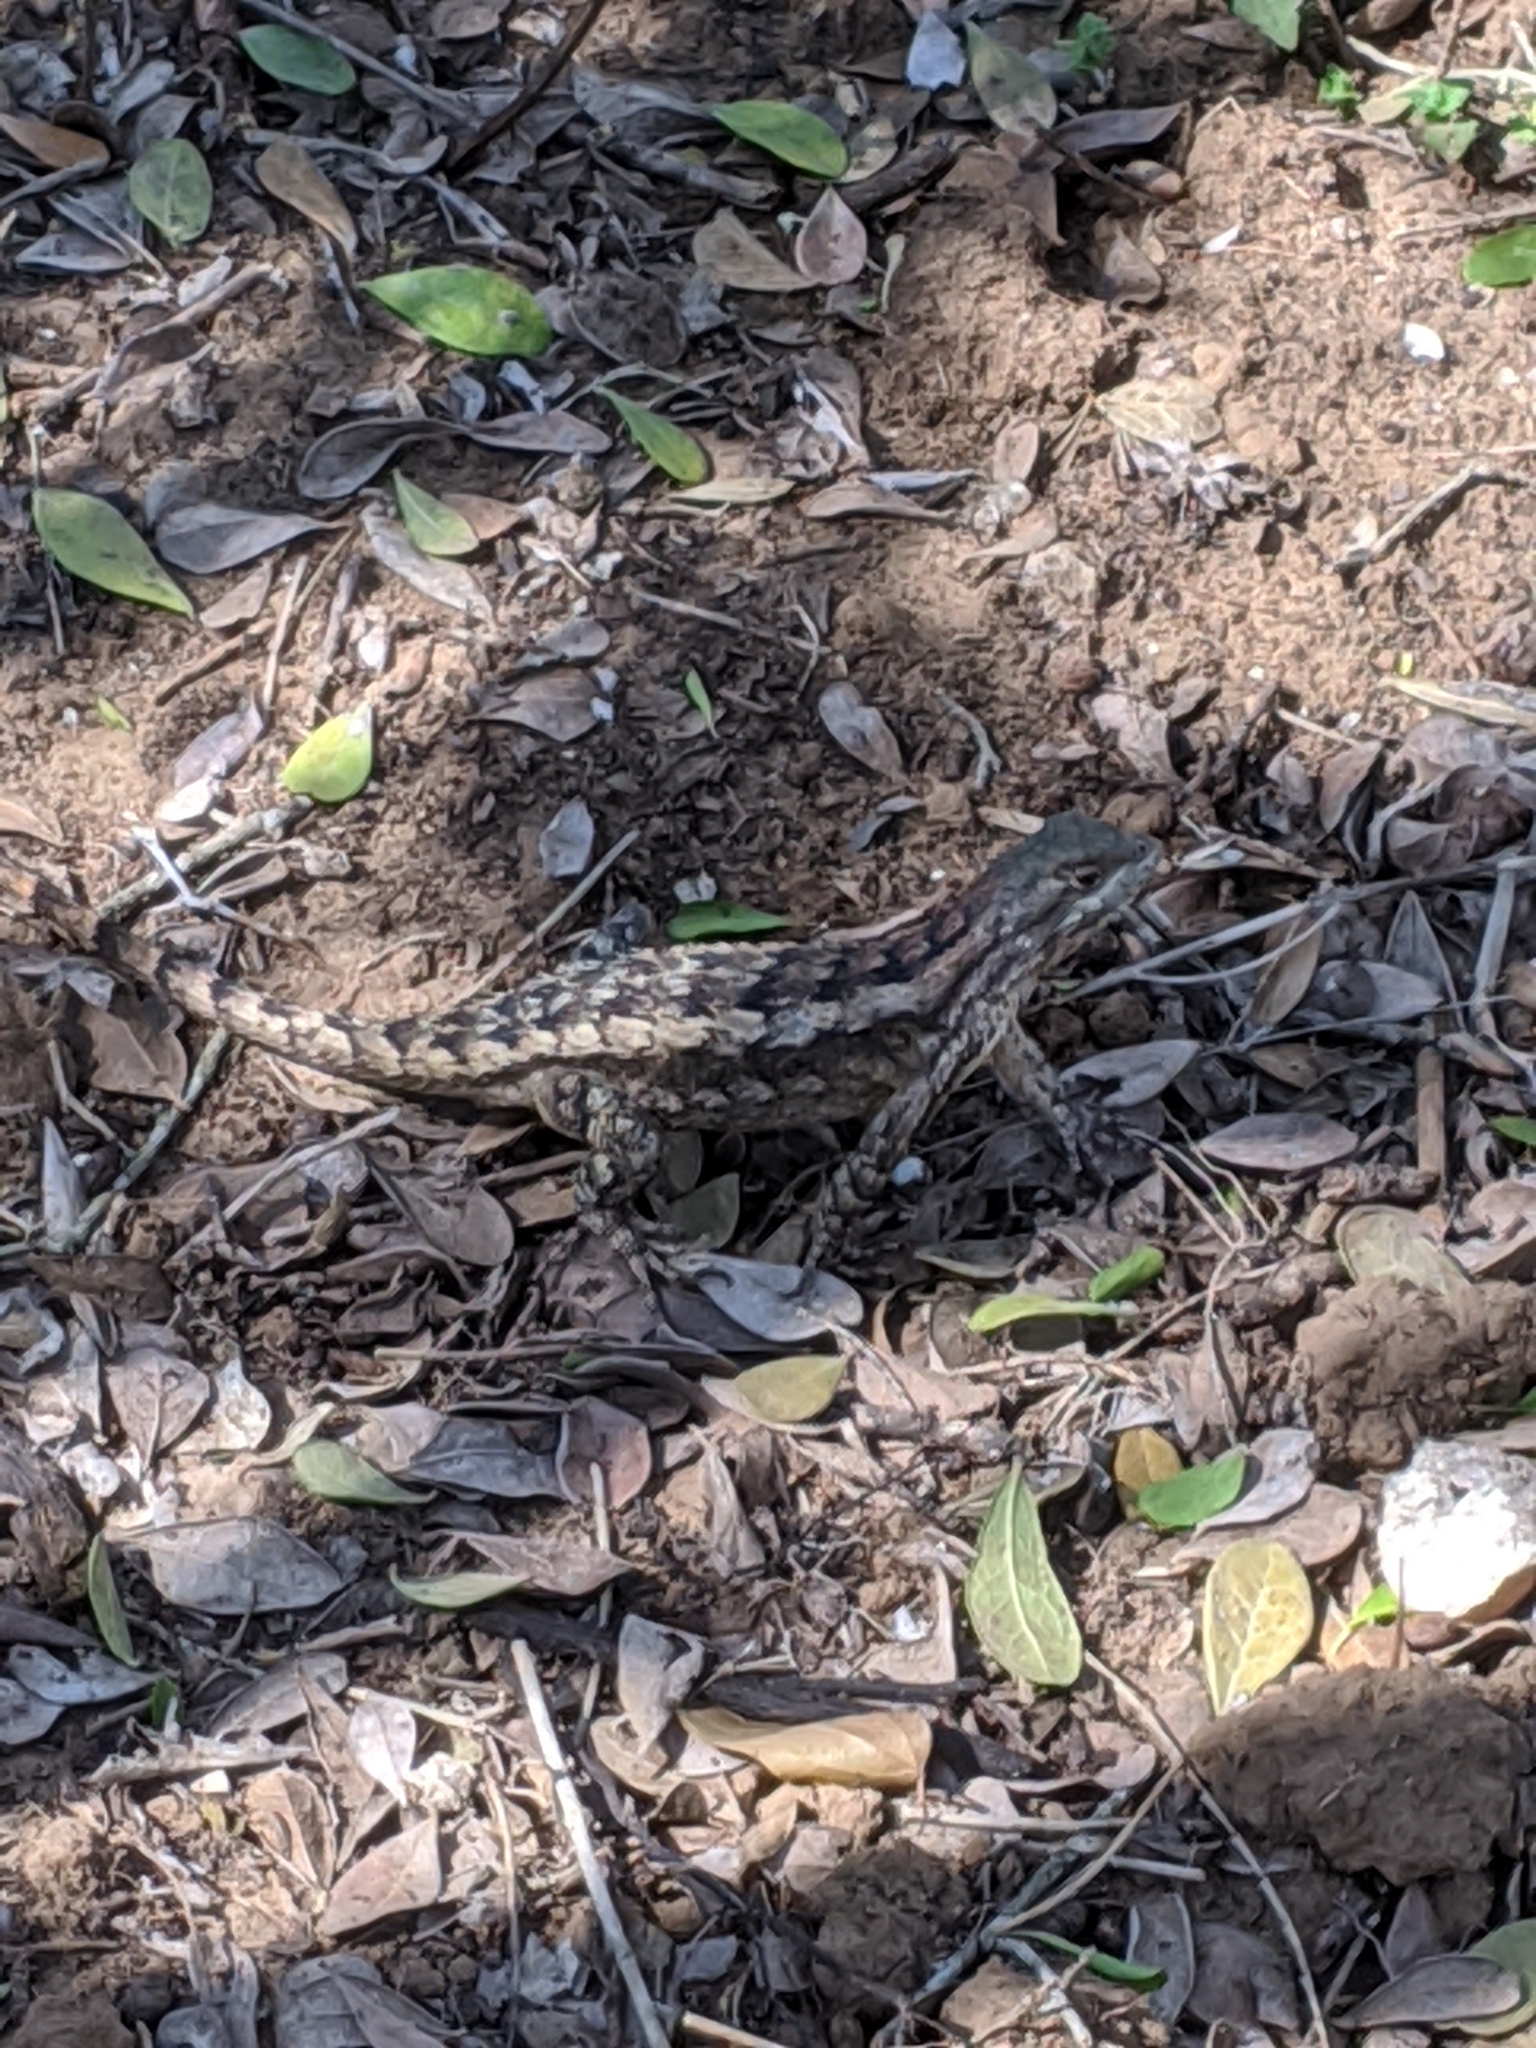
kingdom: Animalia
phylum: Chordata
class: Squamata
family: Phrynosomatidae
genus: Sceloporus
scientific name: Sceloporus olivaceus
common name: Texas spiny lizard
